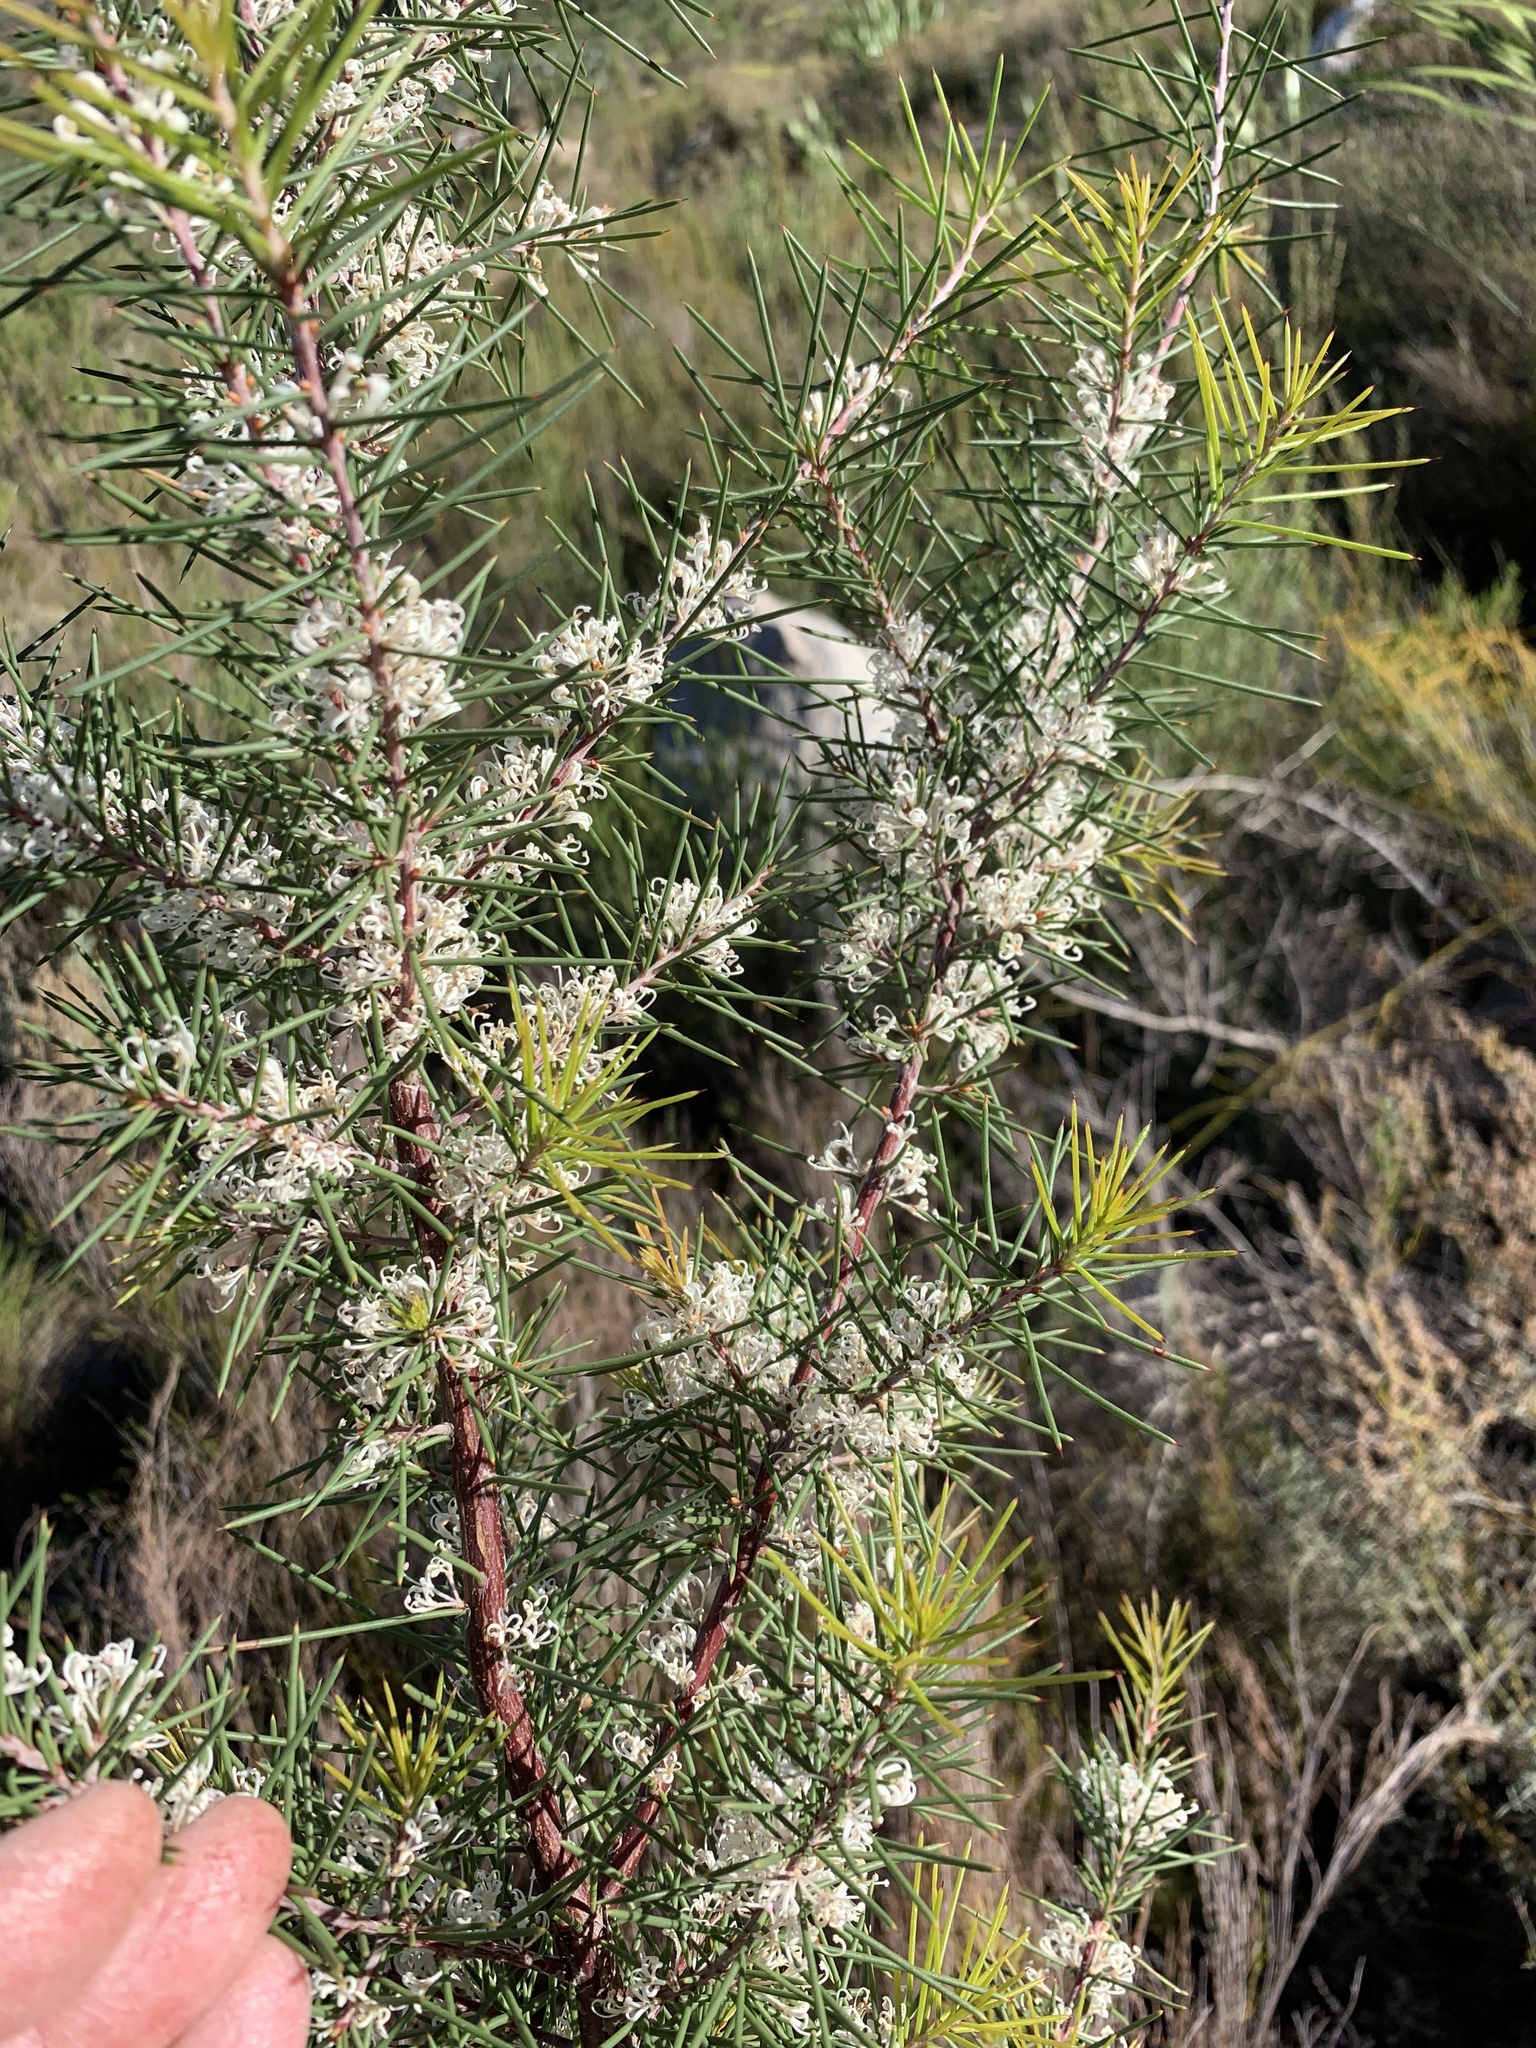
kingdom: Plantae
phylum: Tracheophyta
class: Magnoliopsida
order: Proteales
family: Proteaceae
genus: Hakea
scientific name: Hakea sericea
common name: Needle bush
